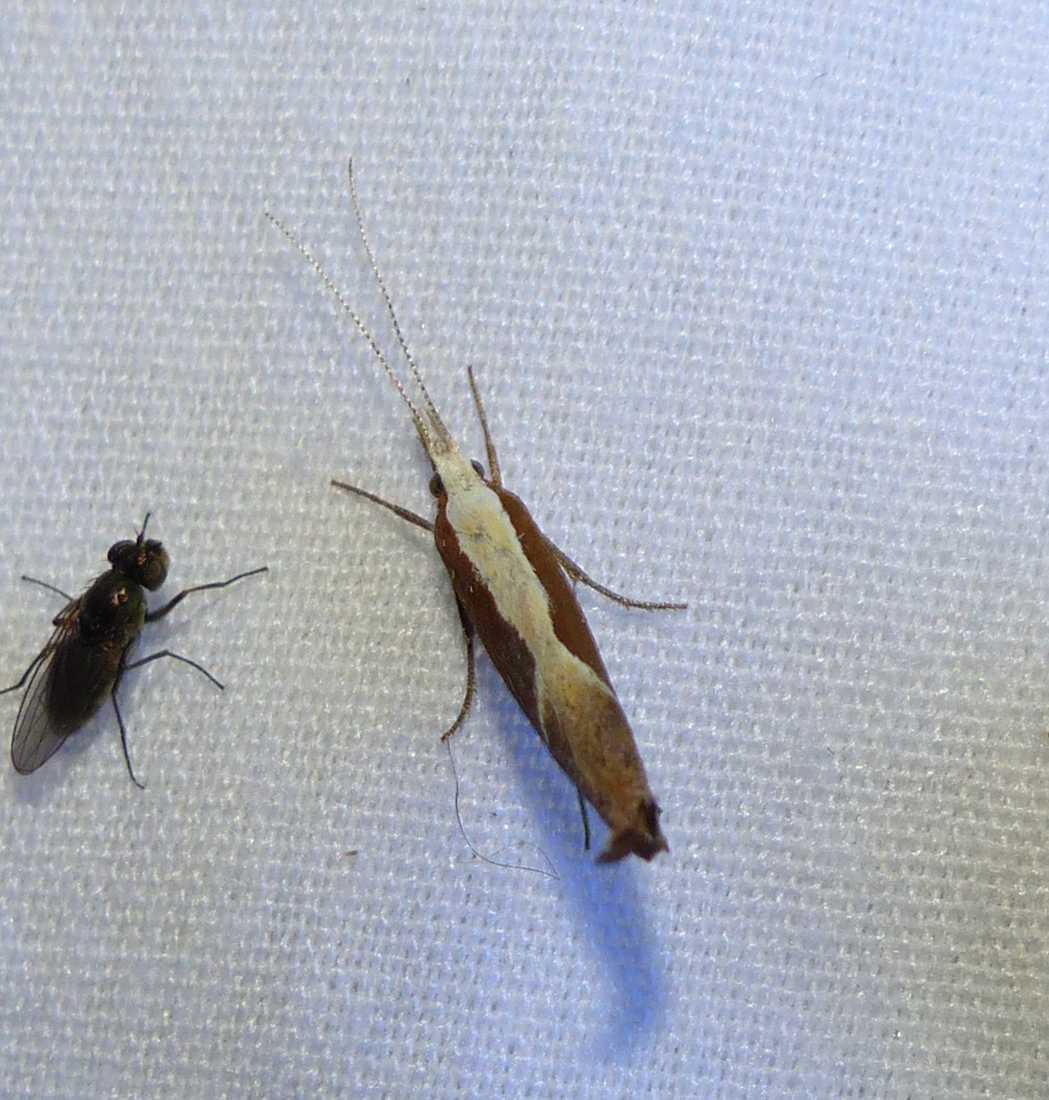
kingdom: Animalia
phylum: Arthropoda
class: Insecta
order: Lepidoptera
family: Ypsolophidae
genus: Ypsolopha
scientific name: Ypsolopha dentella
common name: Honeysuckle moth
